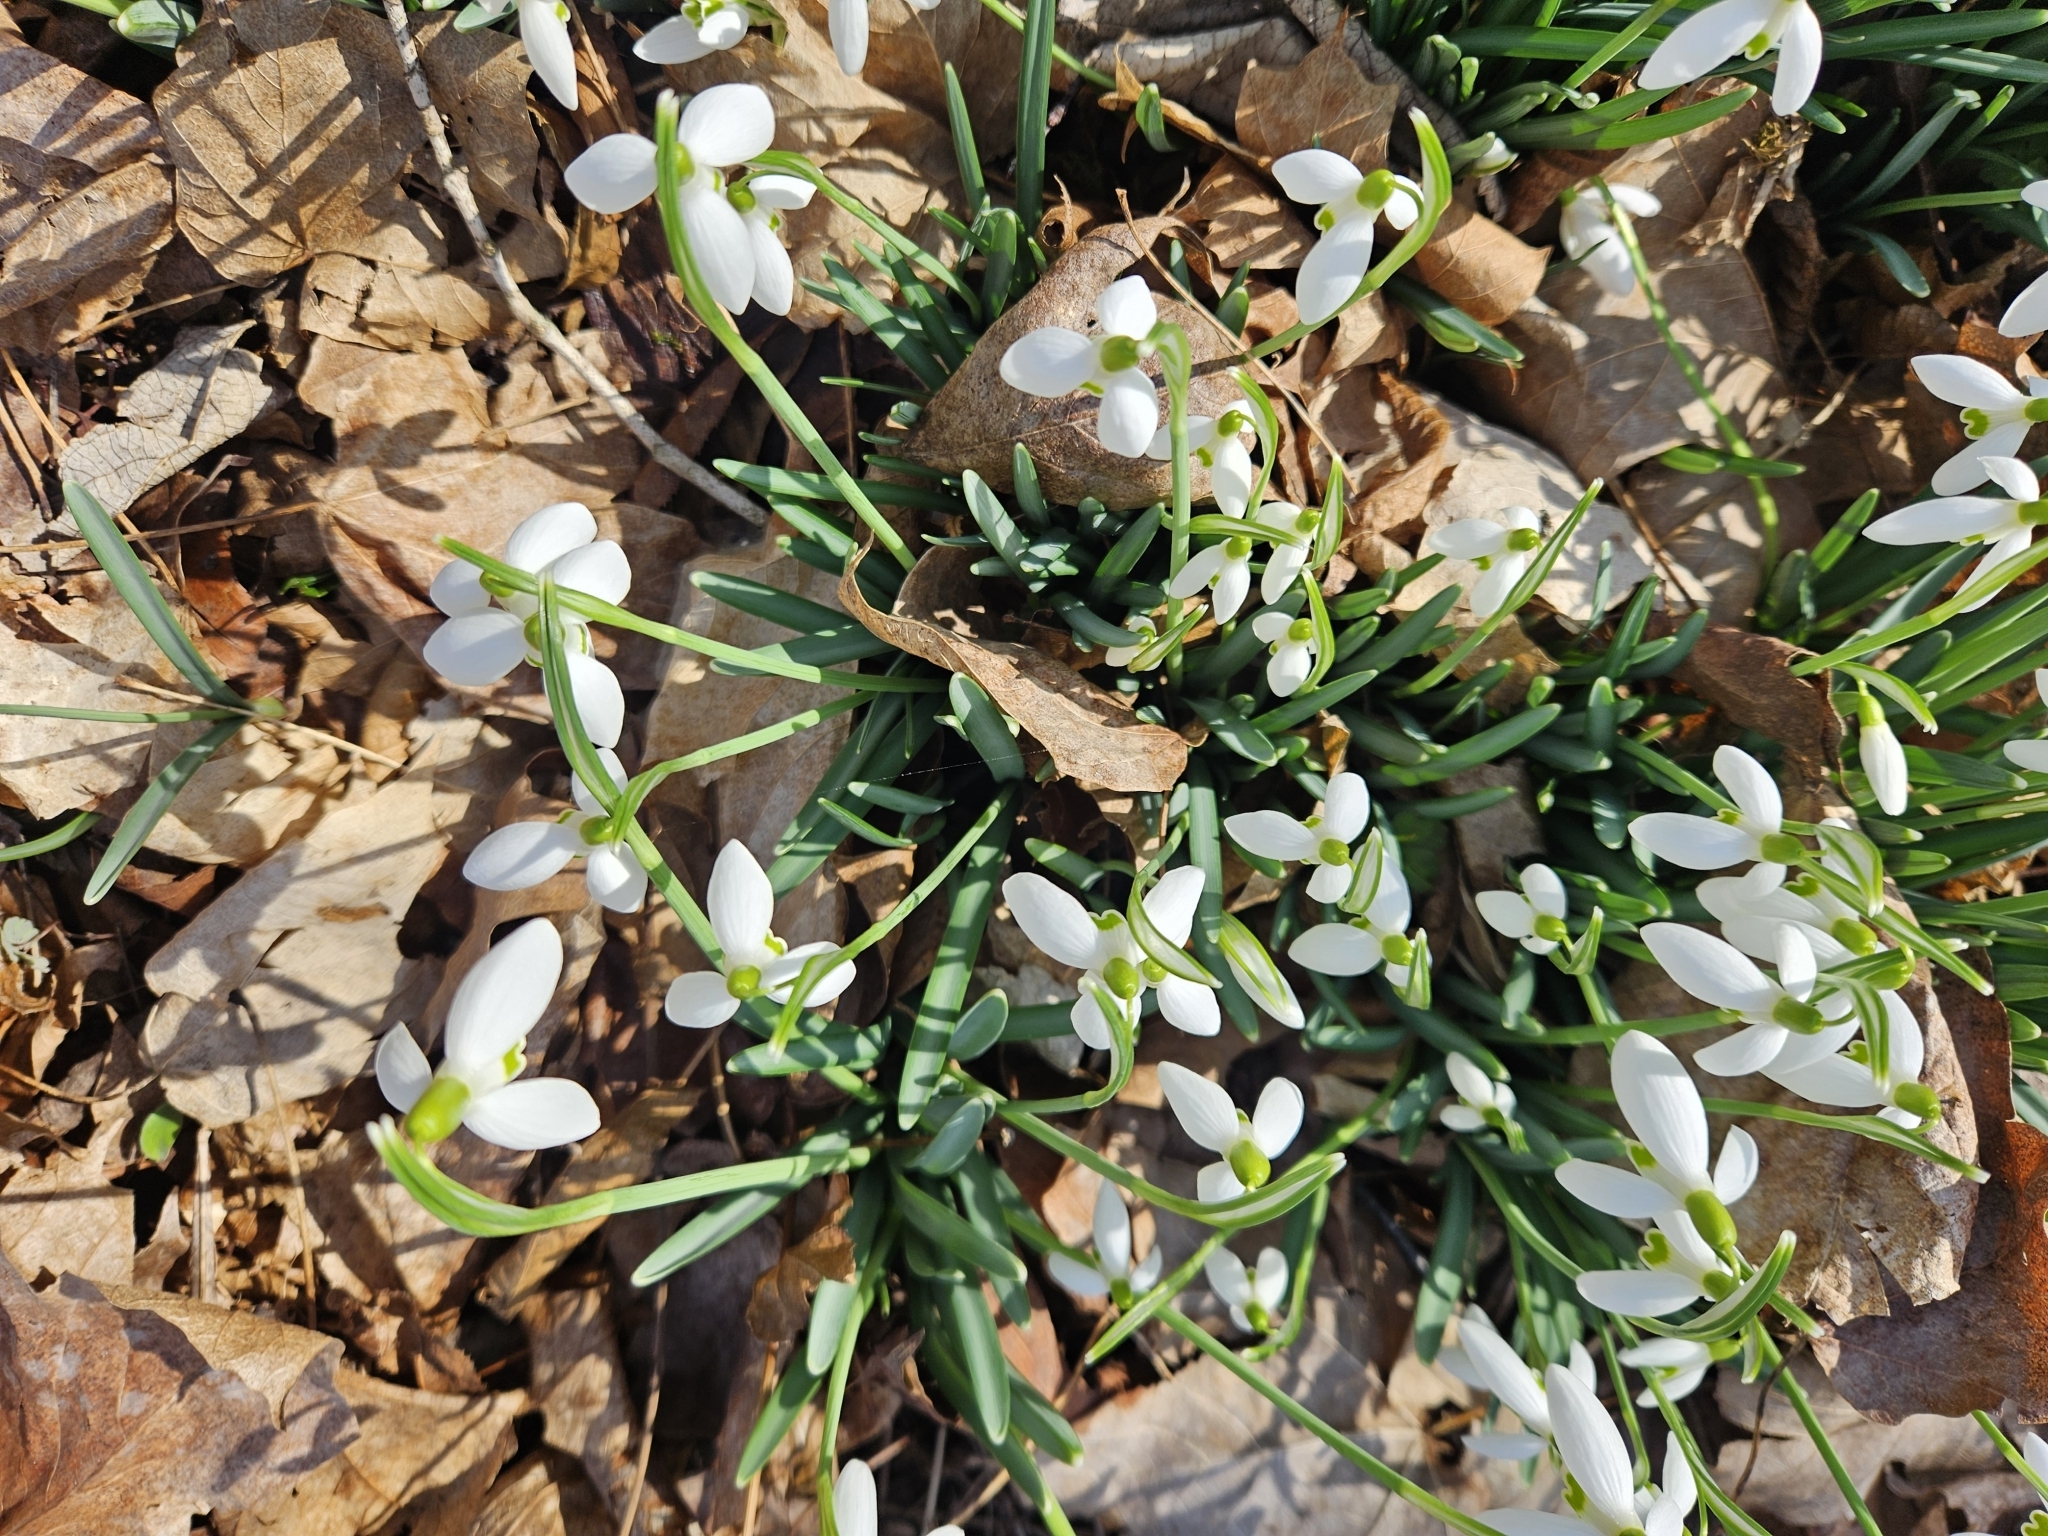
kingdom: Plantae
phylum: Tracheophyta
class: Liliopsida
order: Asparagales
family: Amaryllidaceae
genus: Galanthus
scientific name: Galanthus nivalis
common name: Snowdrop
